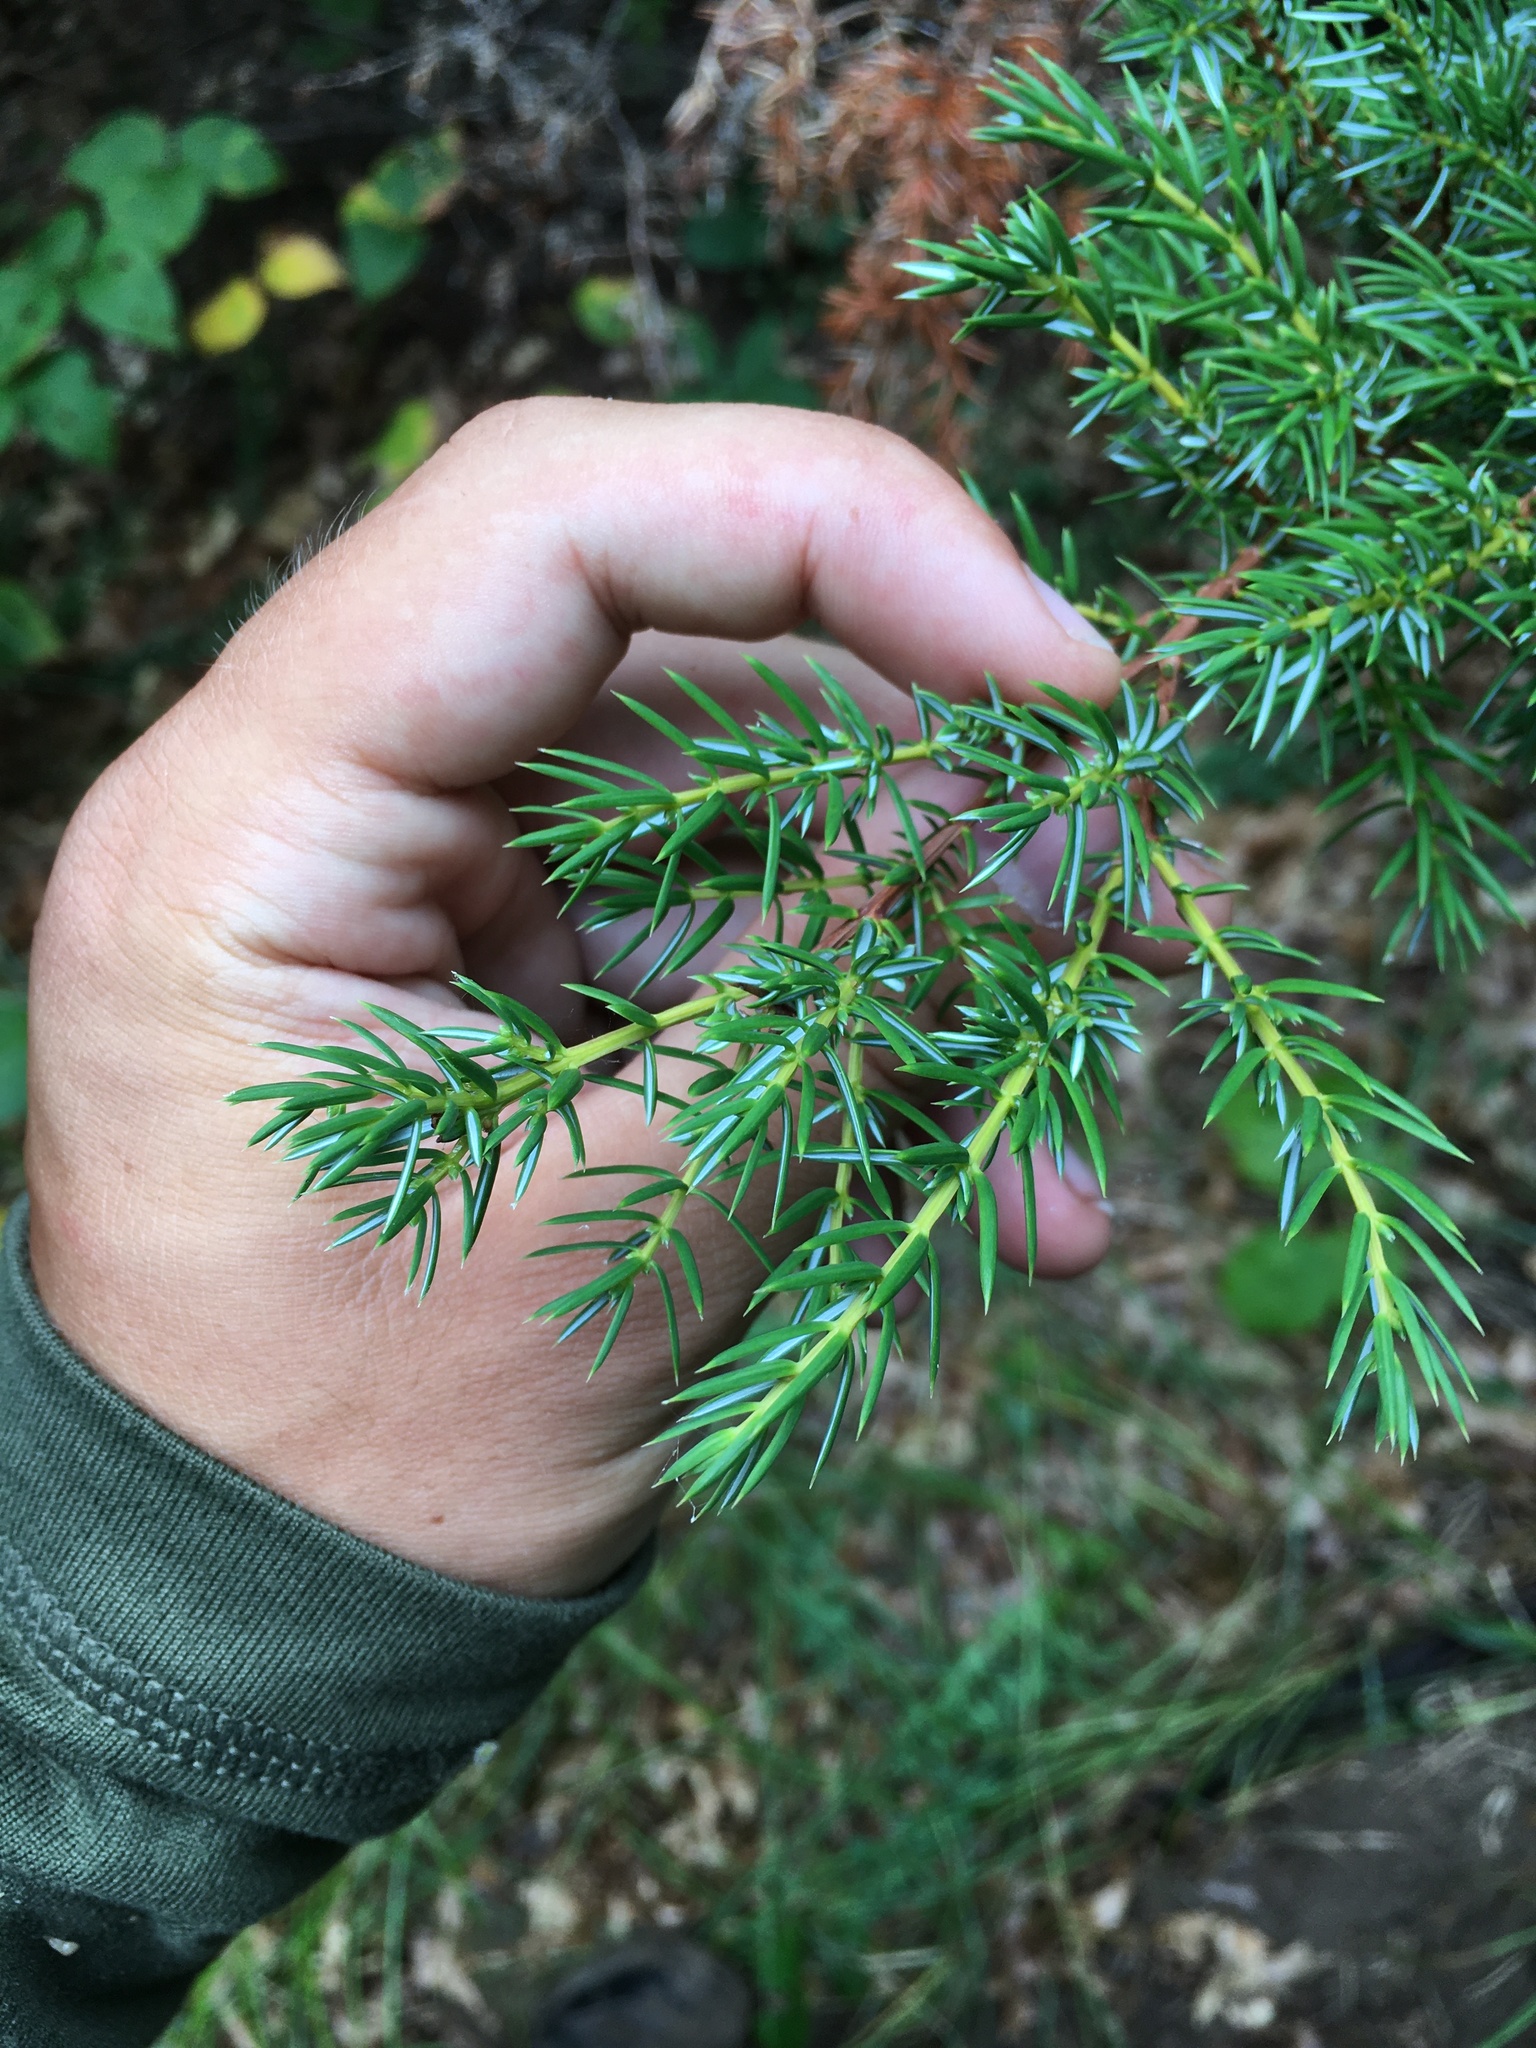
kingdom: Plantae
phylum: Tracheophyta
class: Pinopsida
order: Pinales
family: Cupressaceae
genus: Juniperus
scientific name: Juniperus communis
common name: Common juniper
